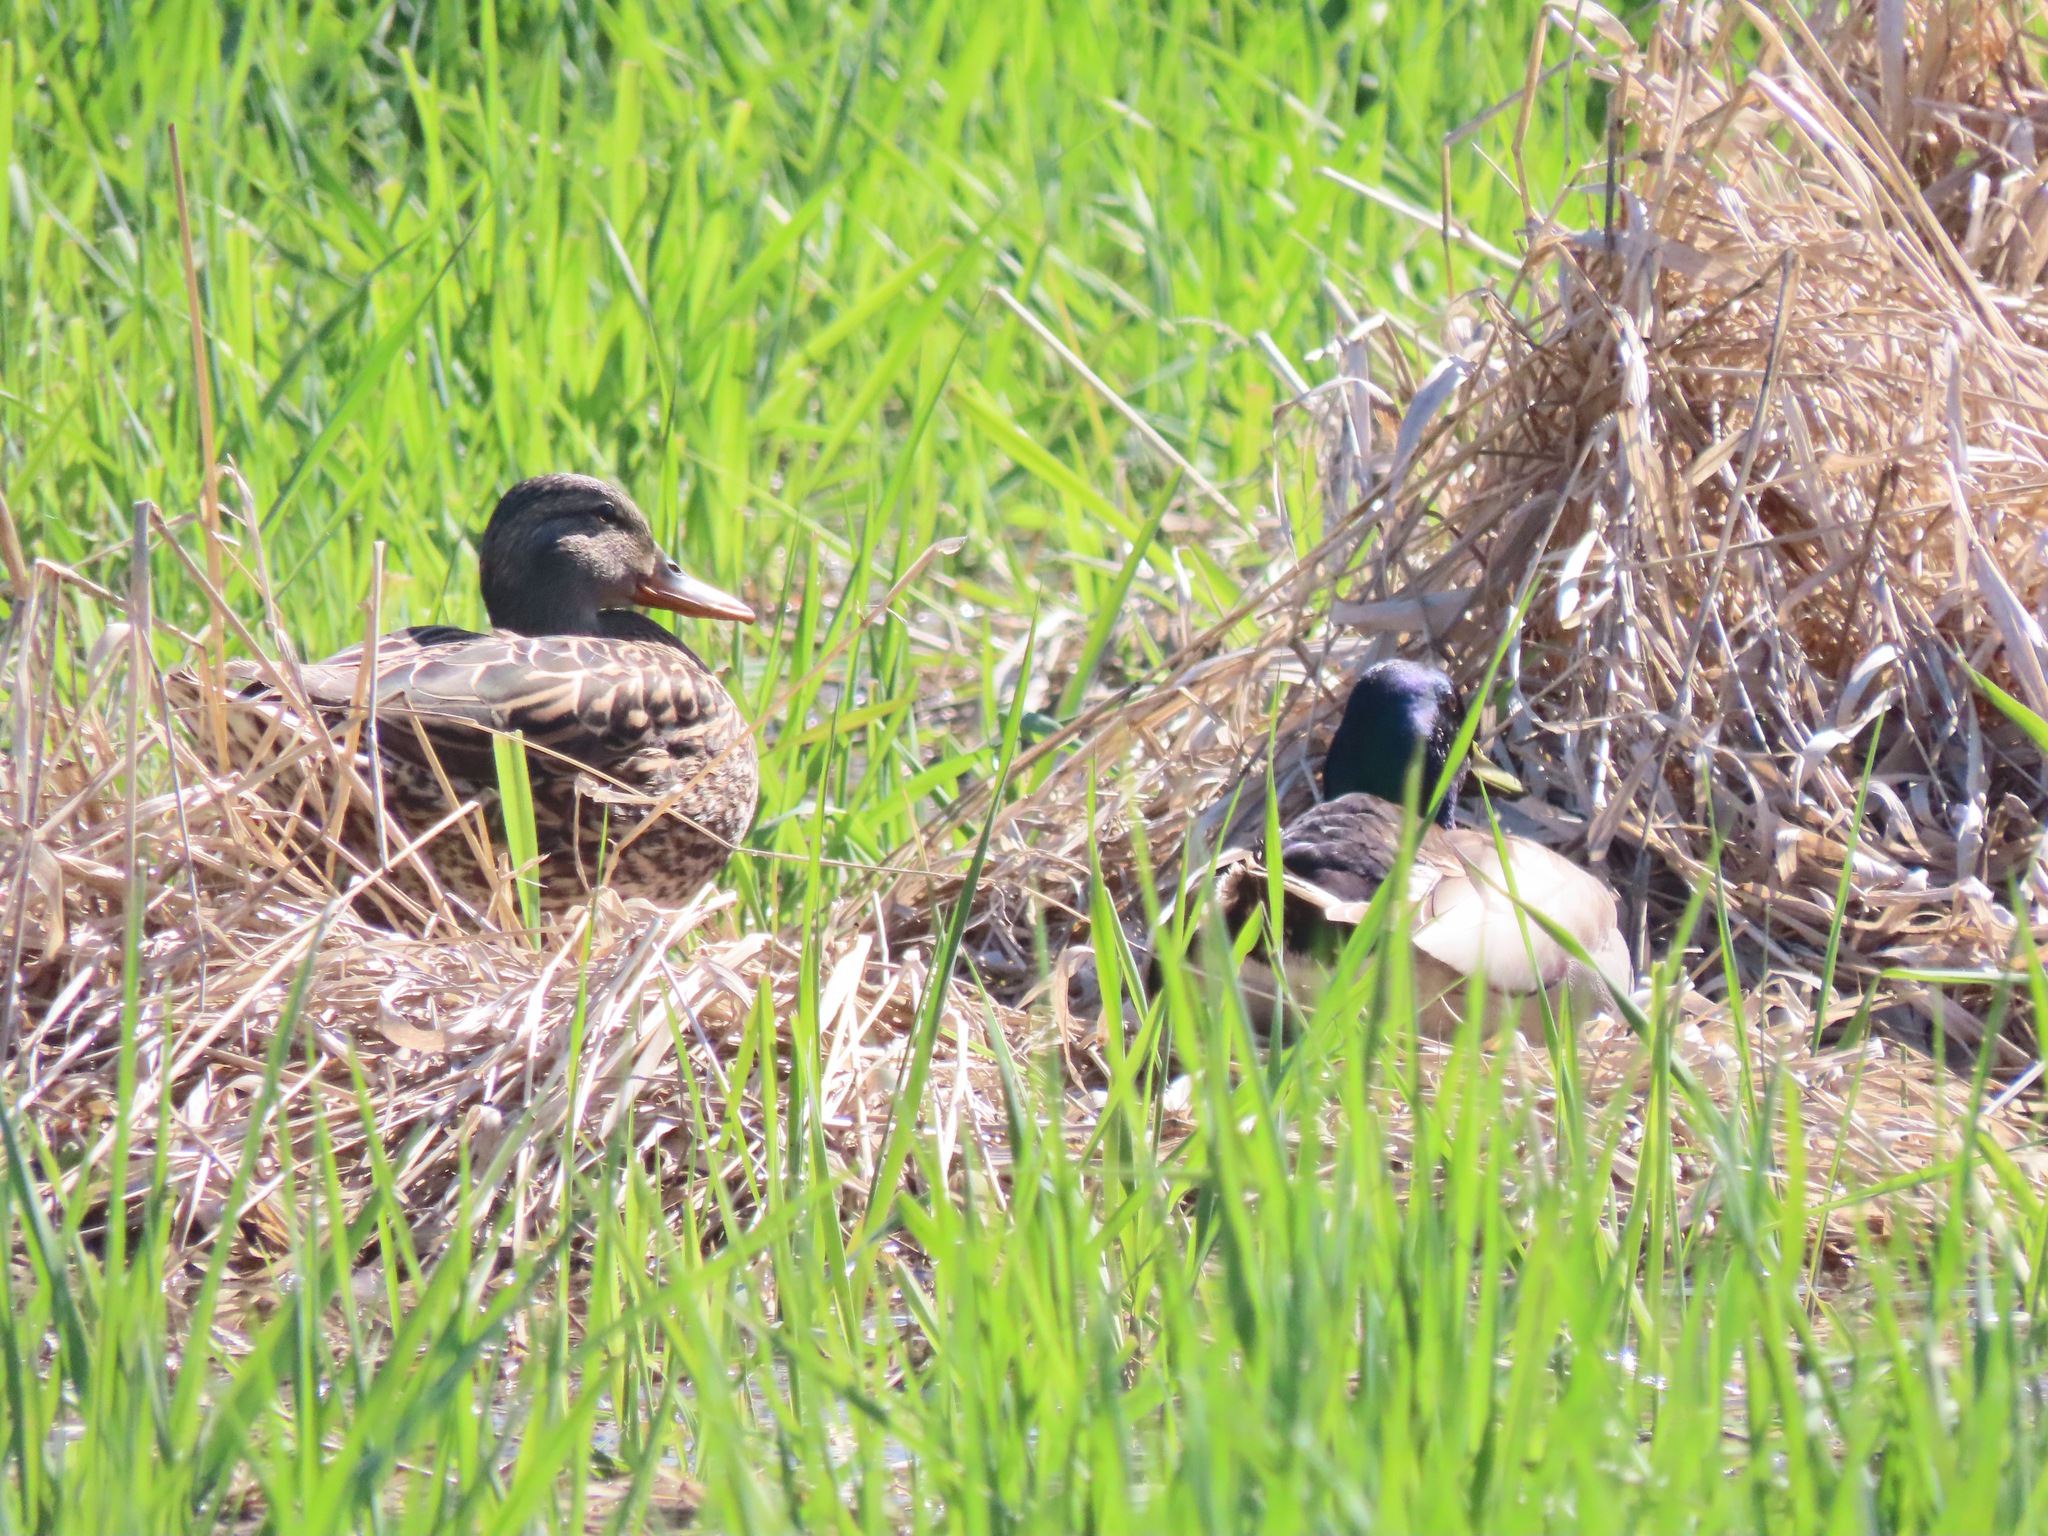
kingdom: Animalia
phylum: Chordata
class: Aves
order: Anseriformes
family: Anatidae
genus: Anas
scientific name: Anas platyrhynchos
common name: Mallard
